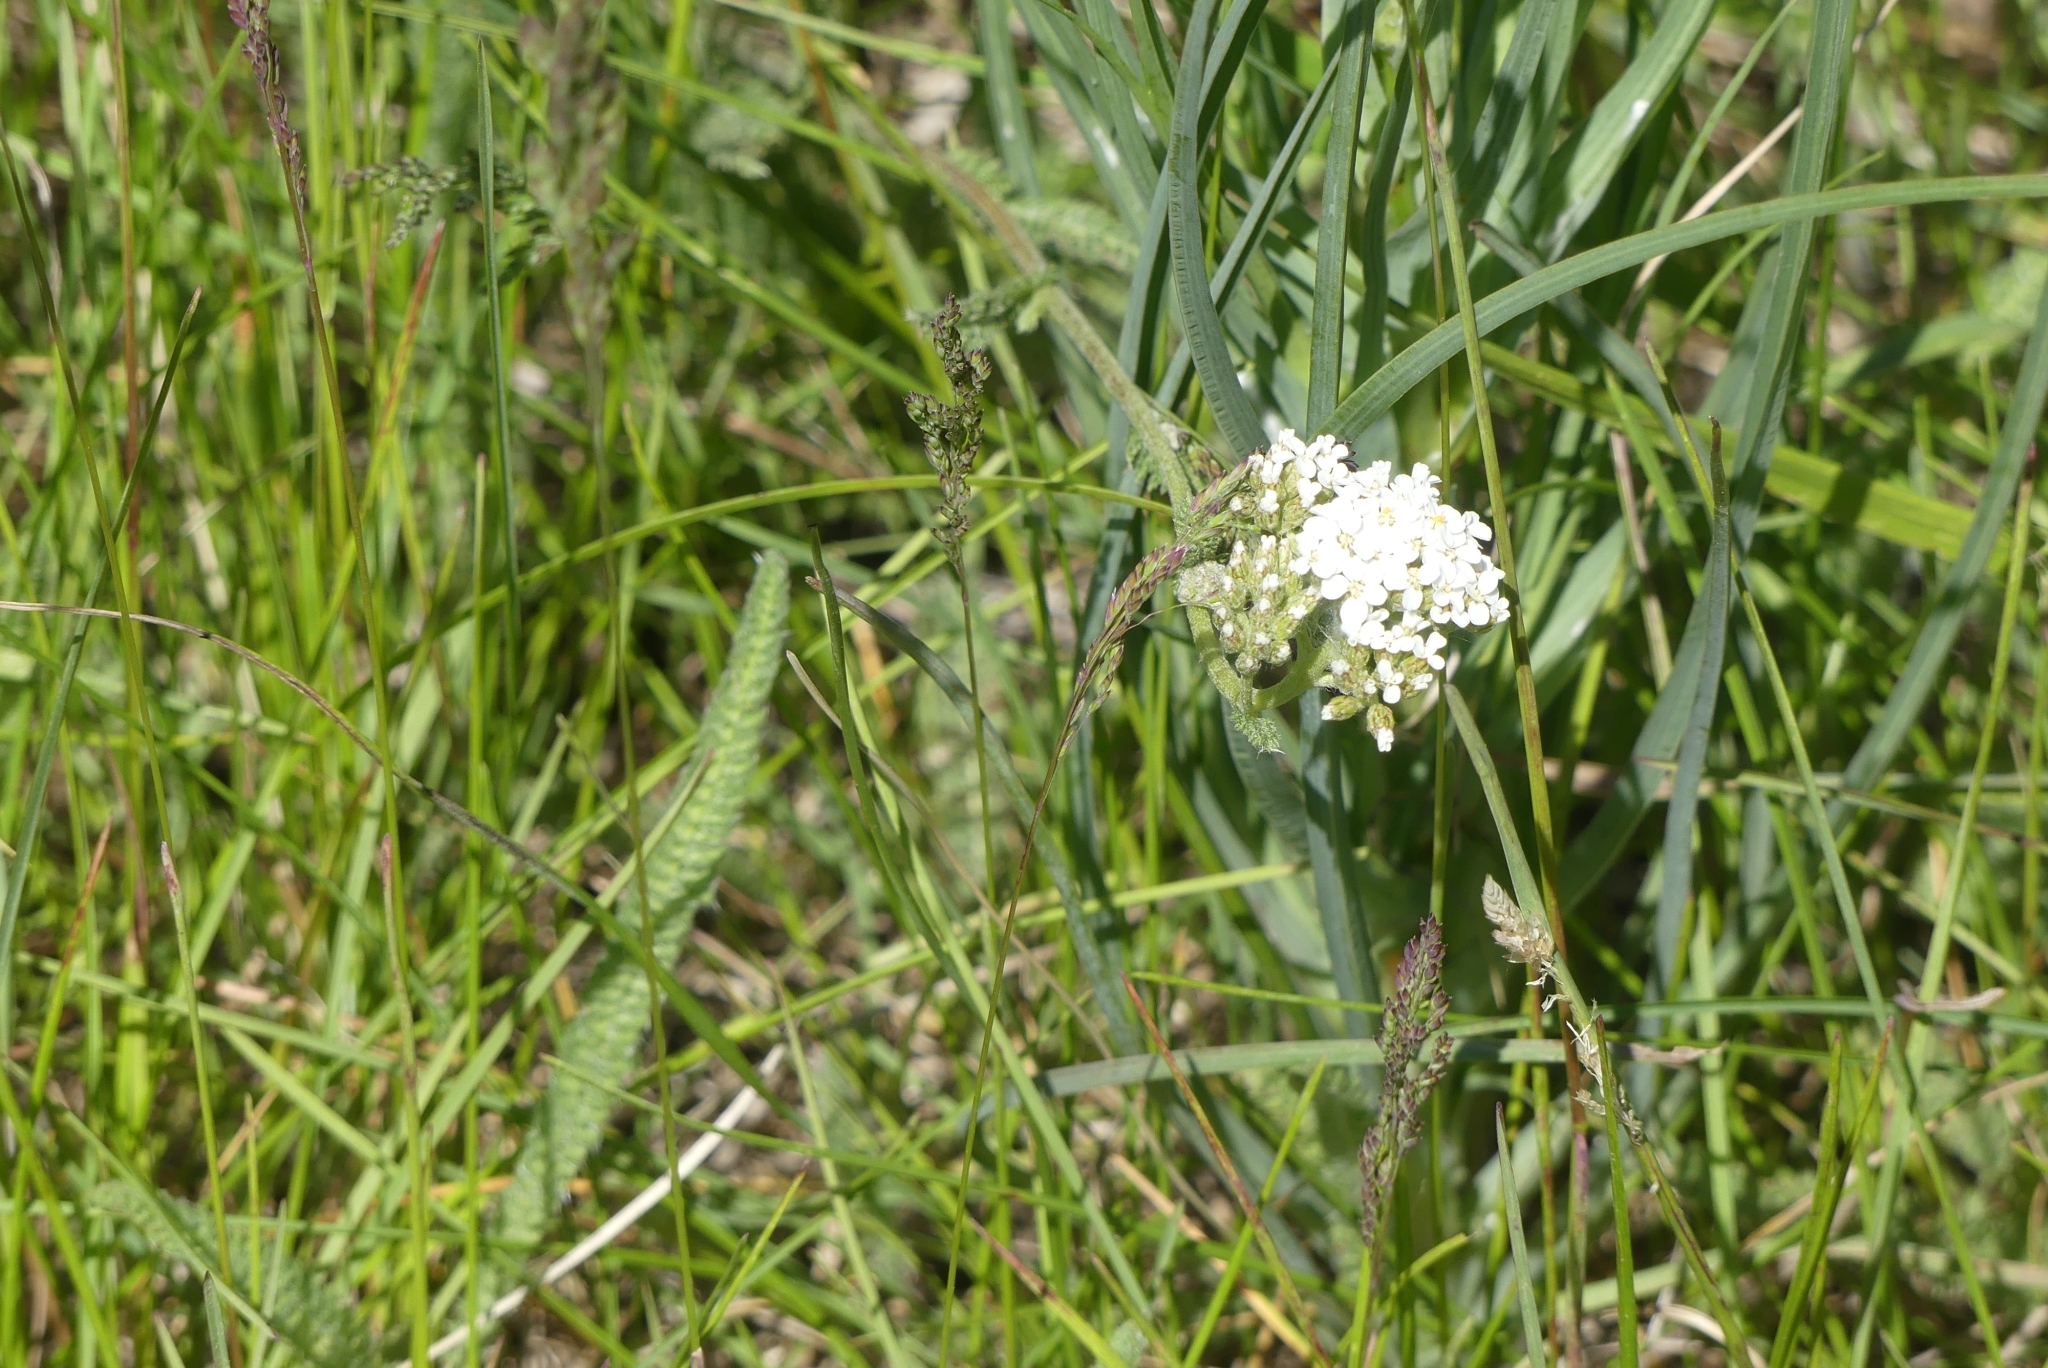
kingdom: Plantae
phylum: Tracheophyta
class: Magnoliopsida
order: Asterales
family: Asteraceae
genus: Achillea
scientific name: Achillea millefolium
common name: Yarrow
